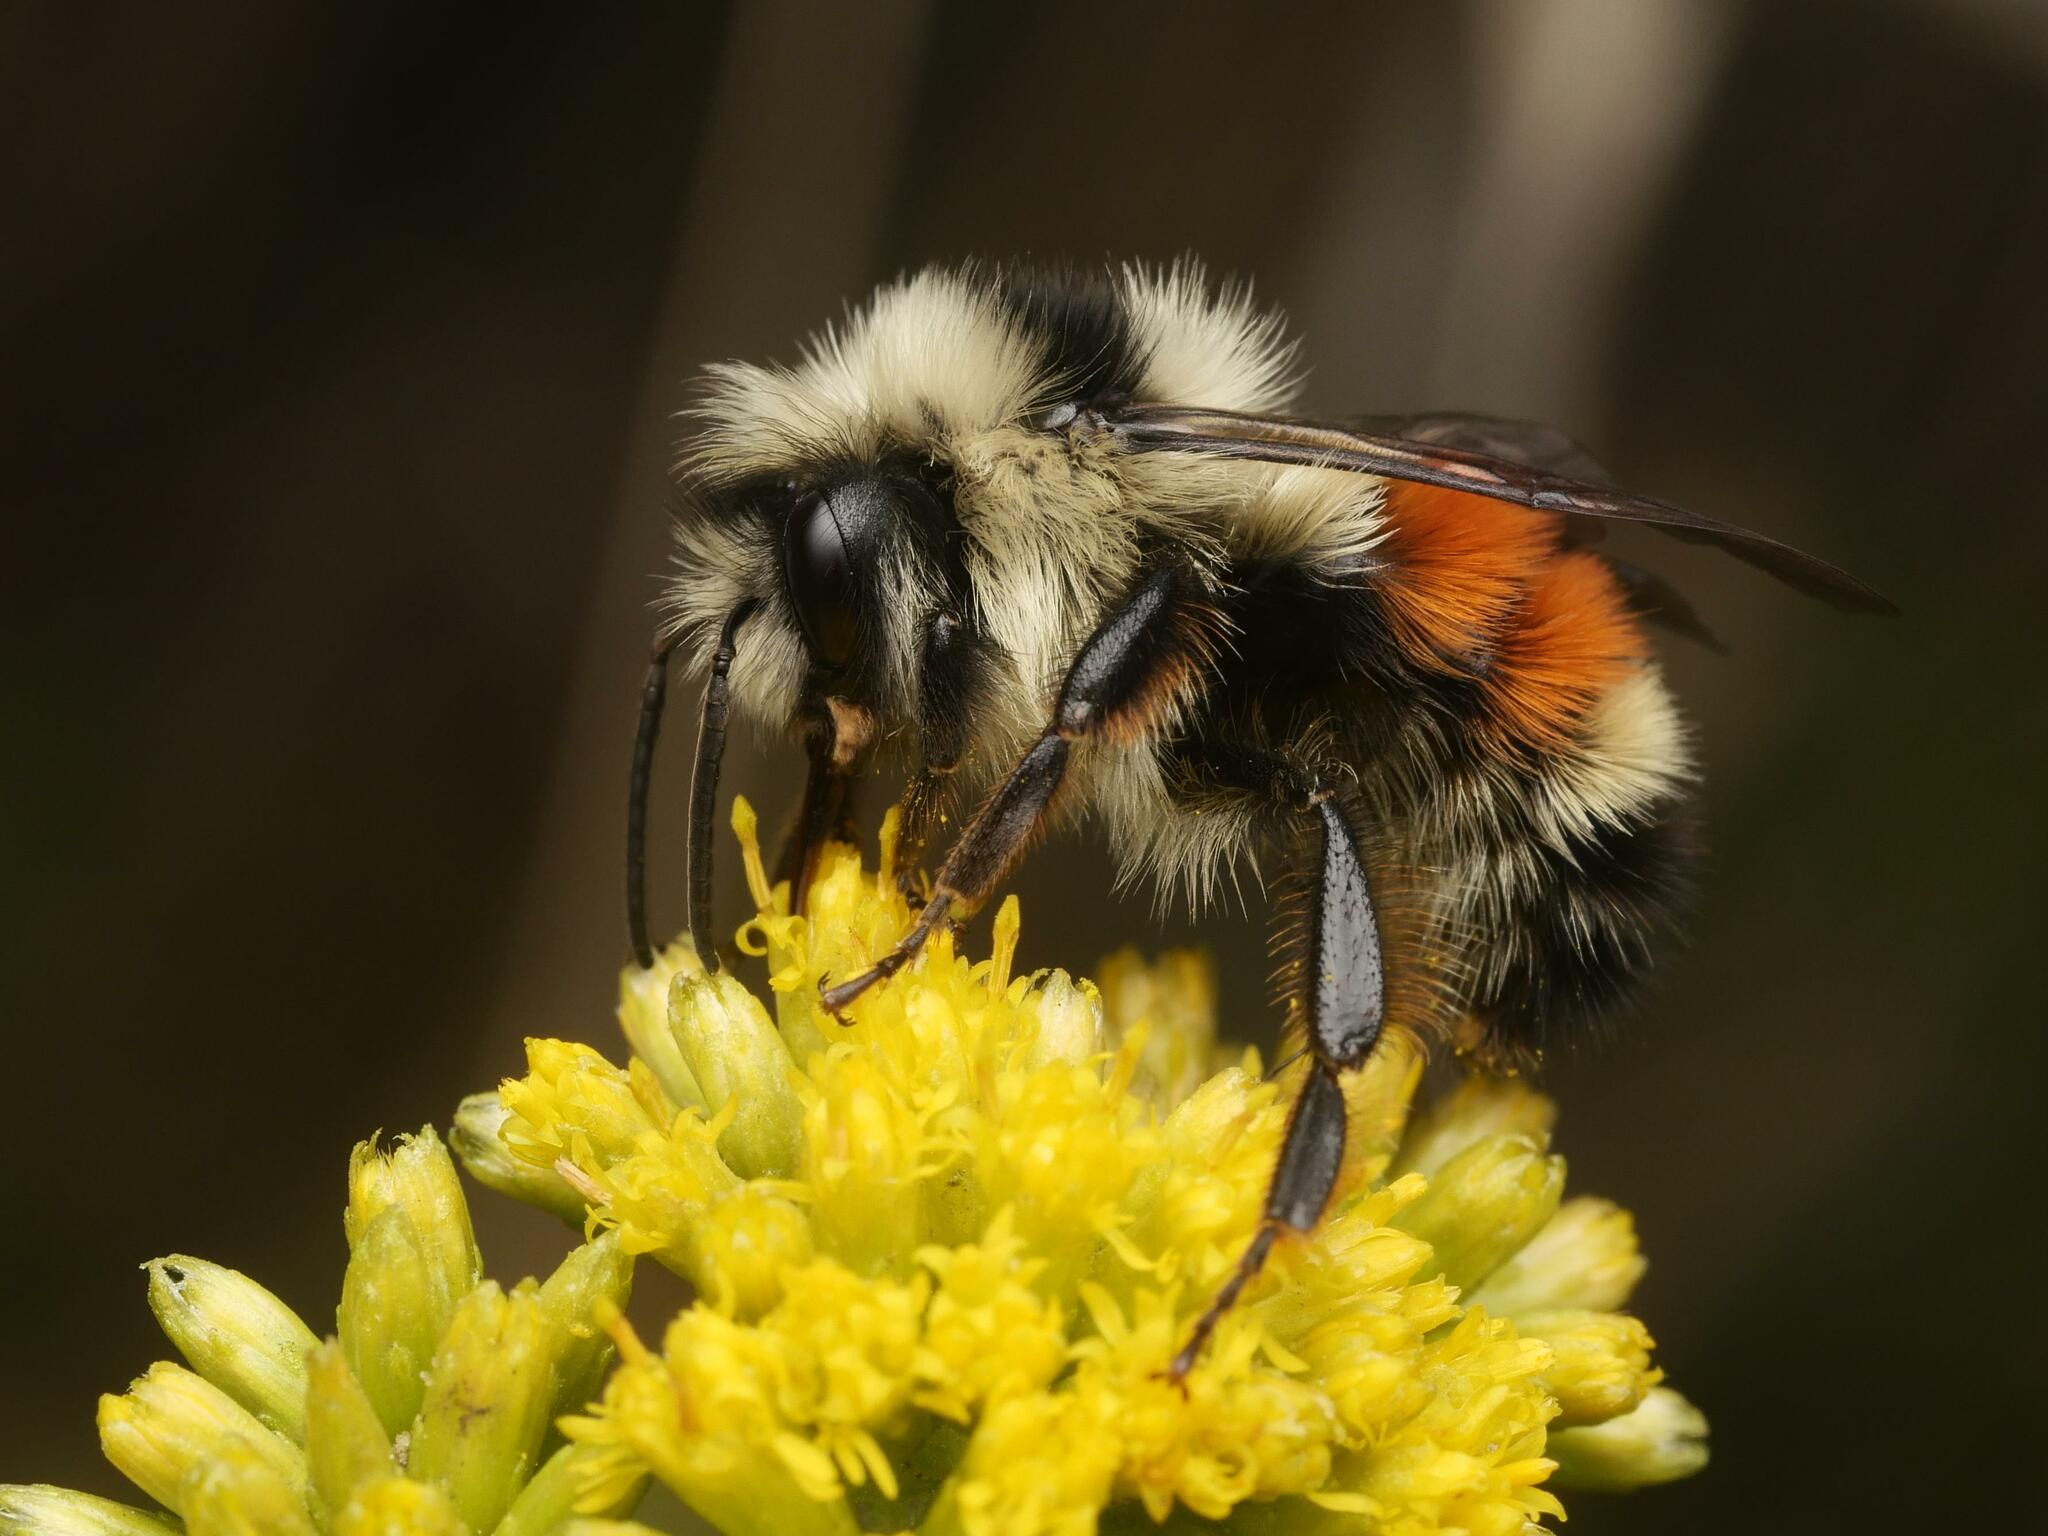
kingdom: Animalia
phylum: Arthropoda
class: Insecta
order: Hymenoptera
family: Apidae
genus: Bombus
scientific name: Bombus ternarius
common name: Tri-colored bumble bee
